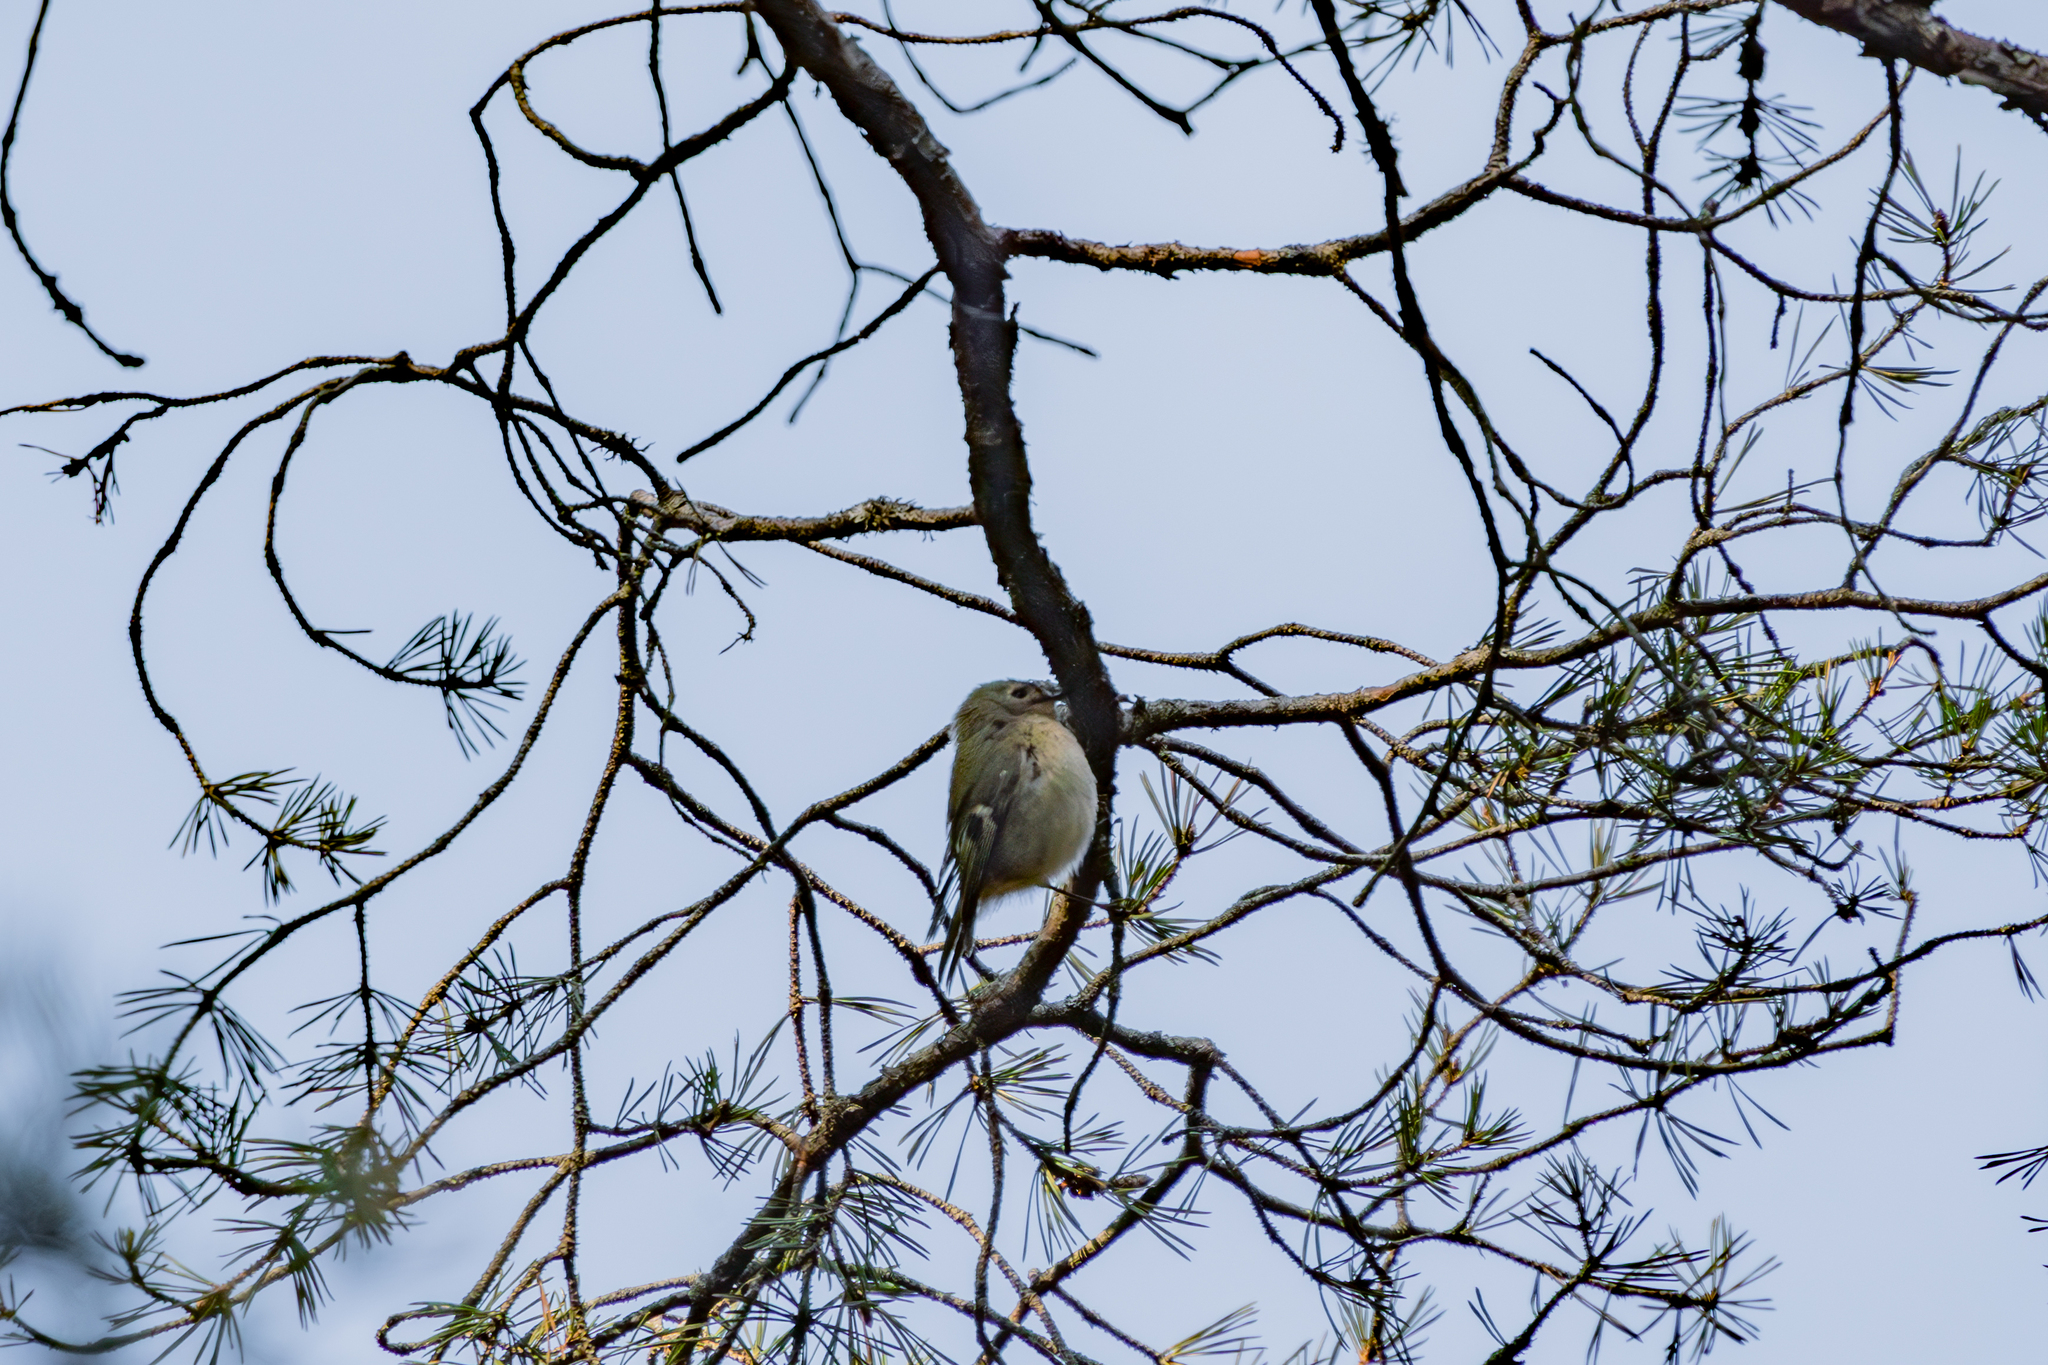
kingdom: Animalia
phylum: Chordata
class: Aves
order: Passeriformes
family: Regulidae
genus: Regulus
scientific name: Regulus regulus
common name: Goldcrest
